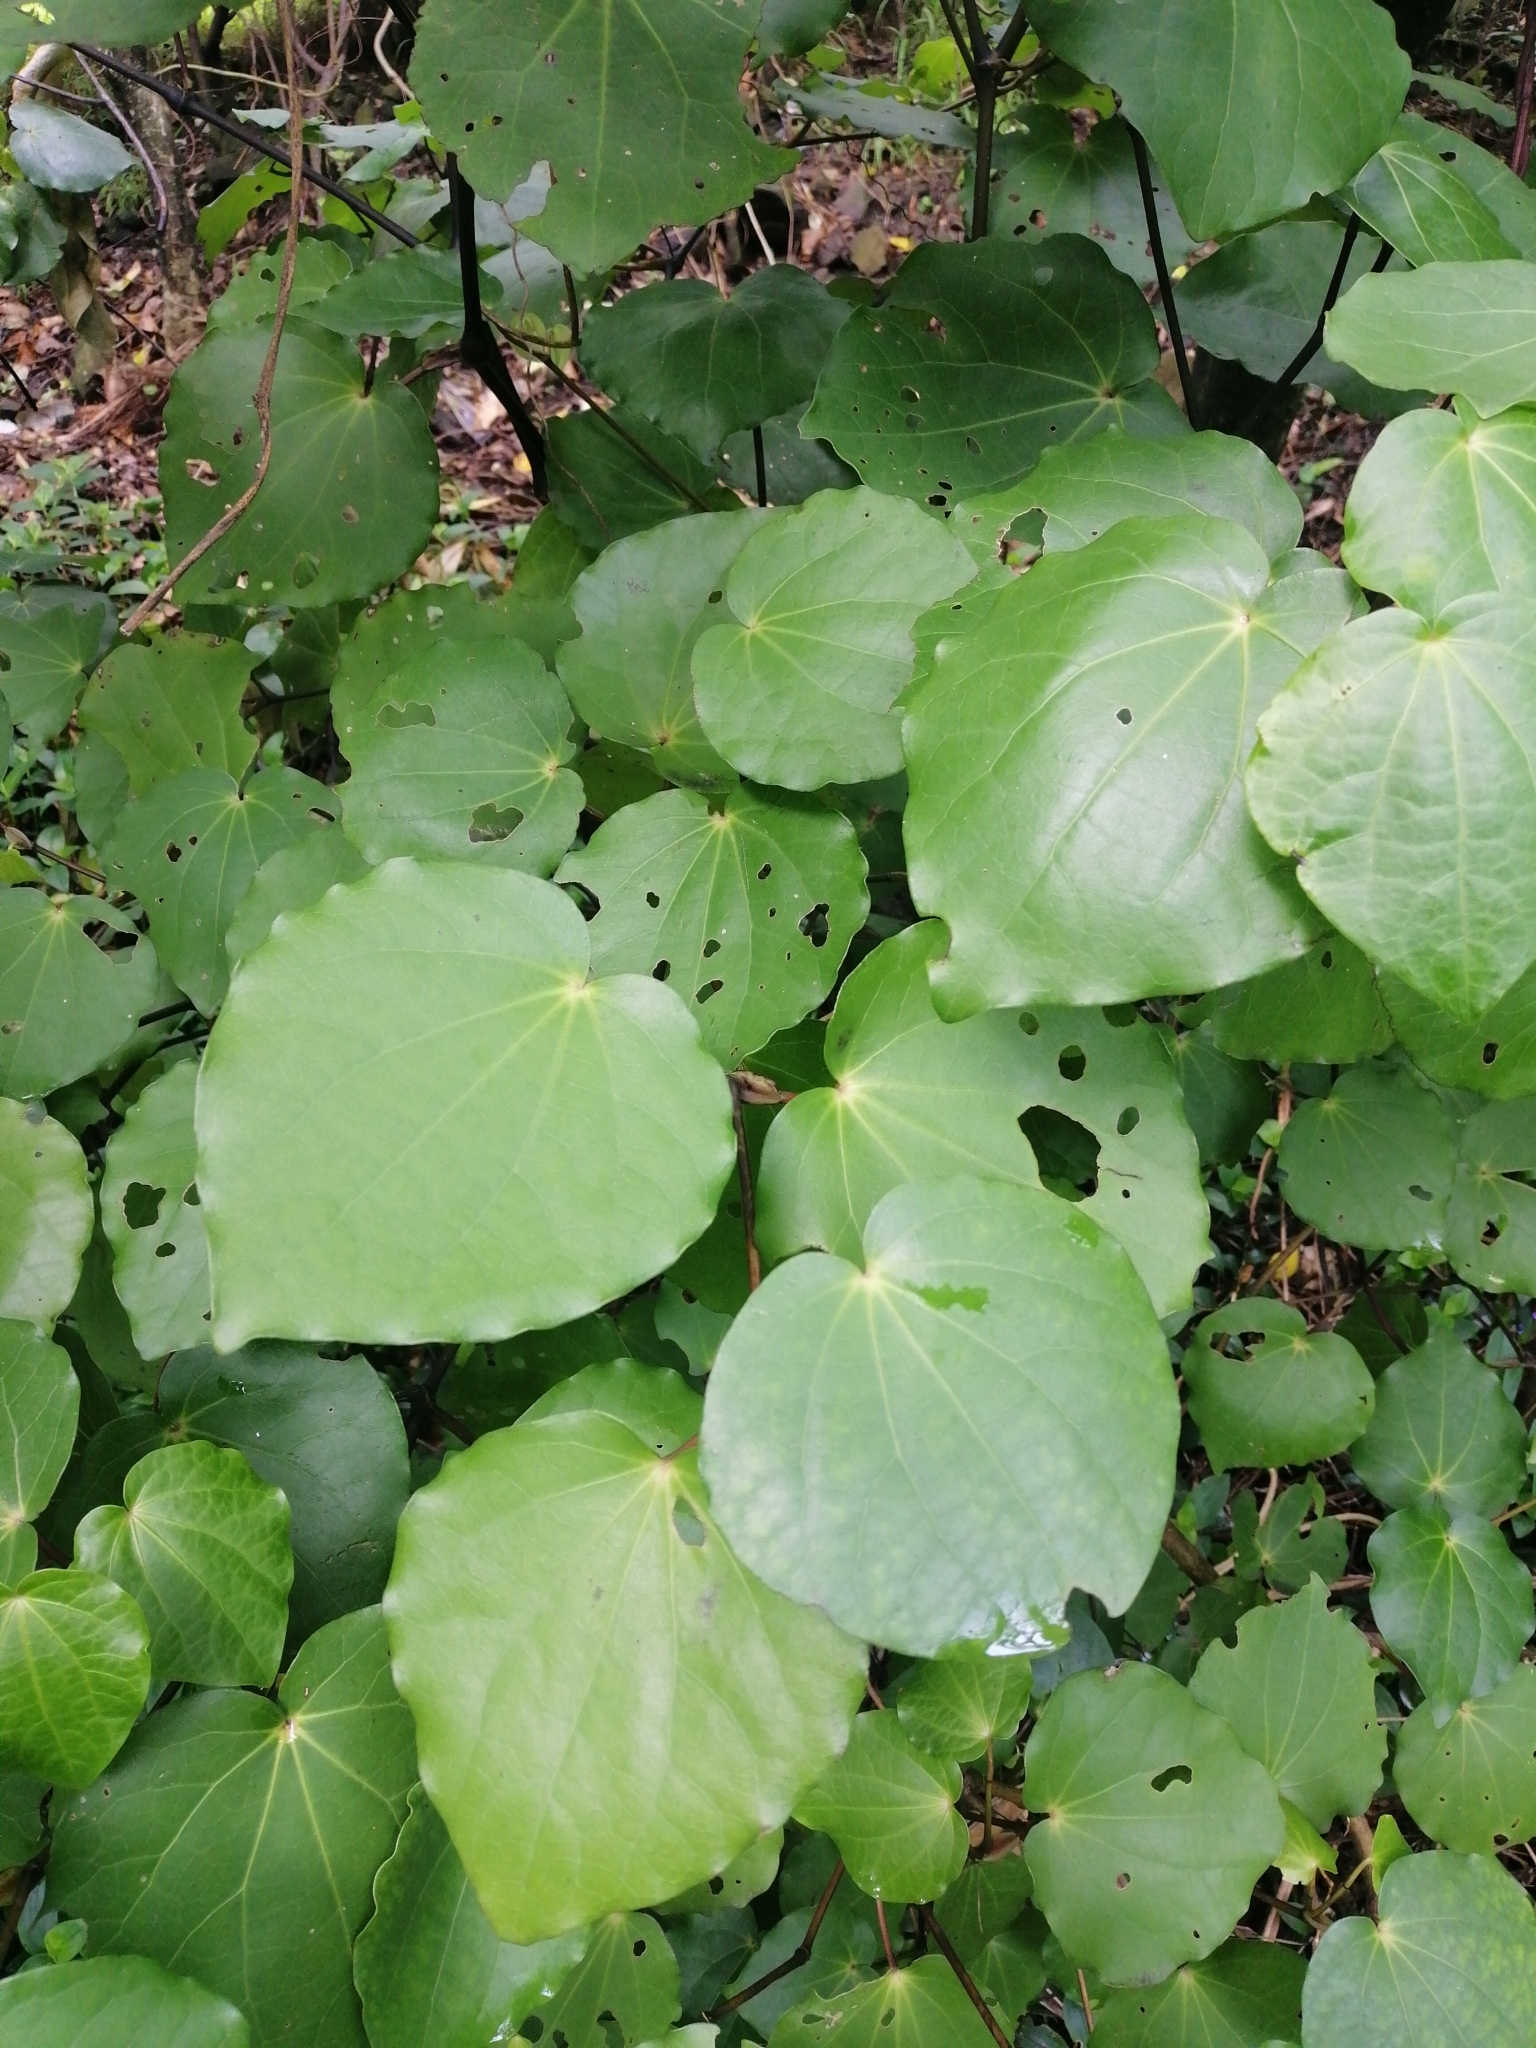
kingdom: Plantae
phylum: Tracheophyta
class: Magnoliopsida
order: Piperales
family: Piperaceae
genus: Macropiper
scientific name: Macropiper excelsum
